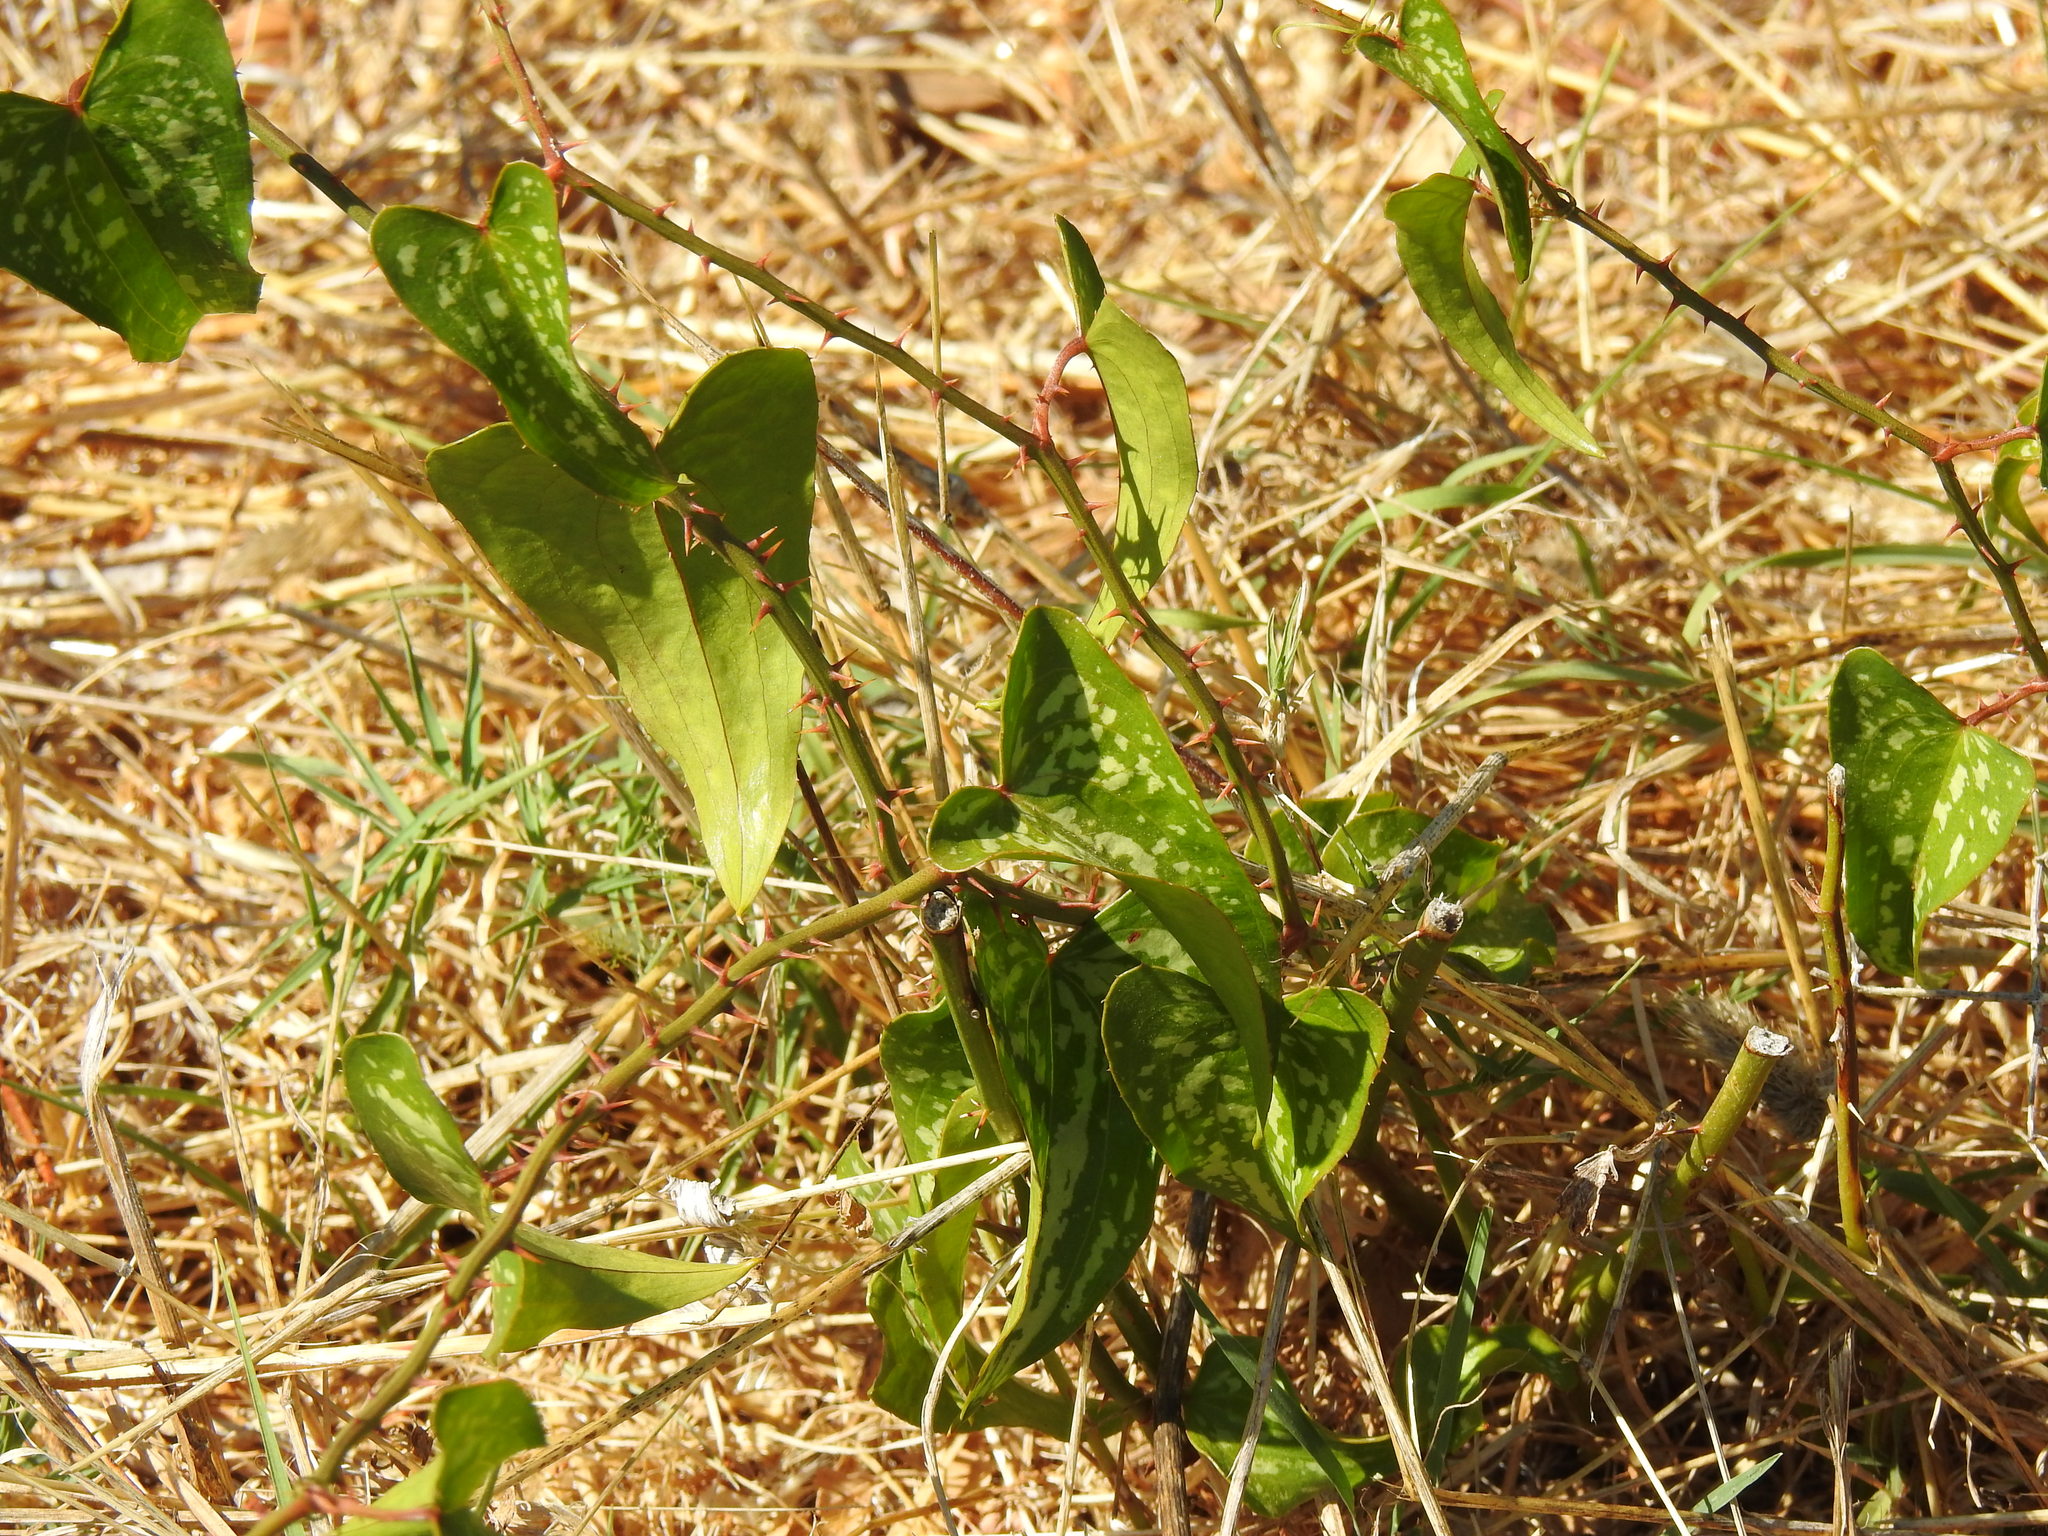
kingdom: Plantae
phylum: Tracheophyta
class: Liliopsida
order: Liliales
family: Smilacaceae
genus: Smilax
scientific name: Smilax aspera
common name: Common smilax
